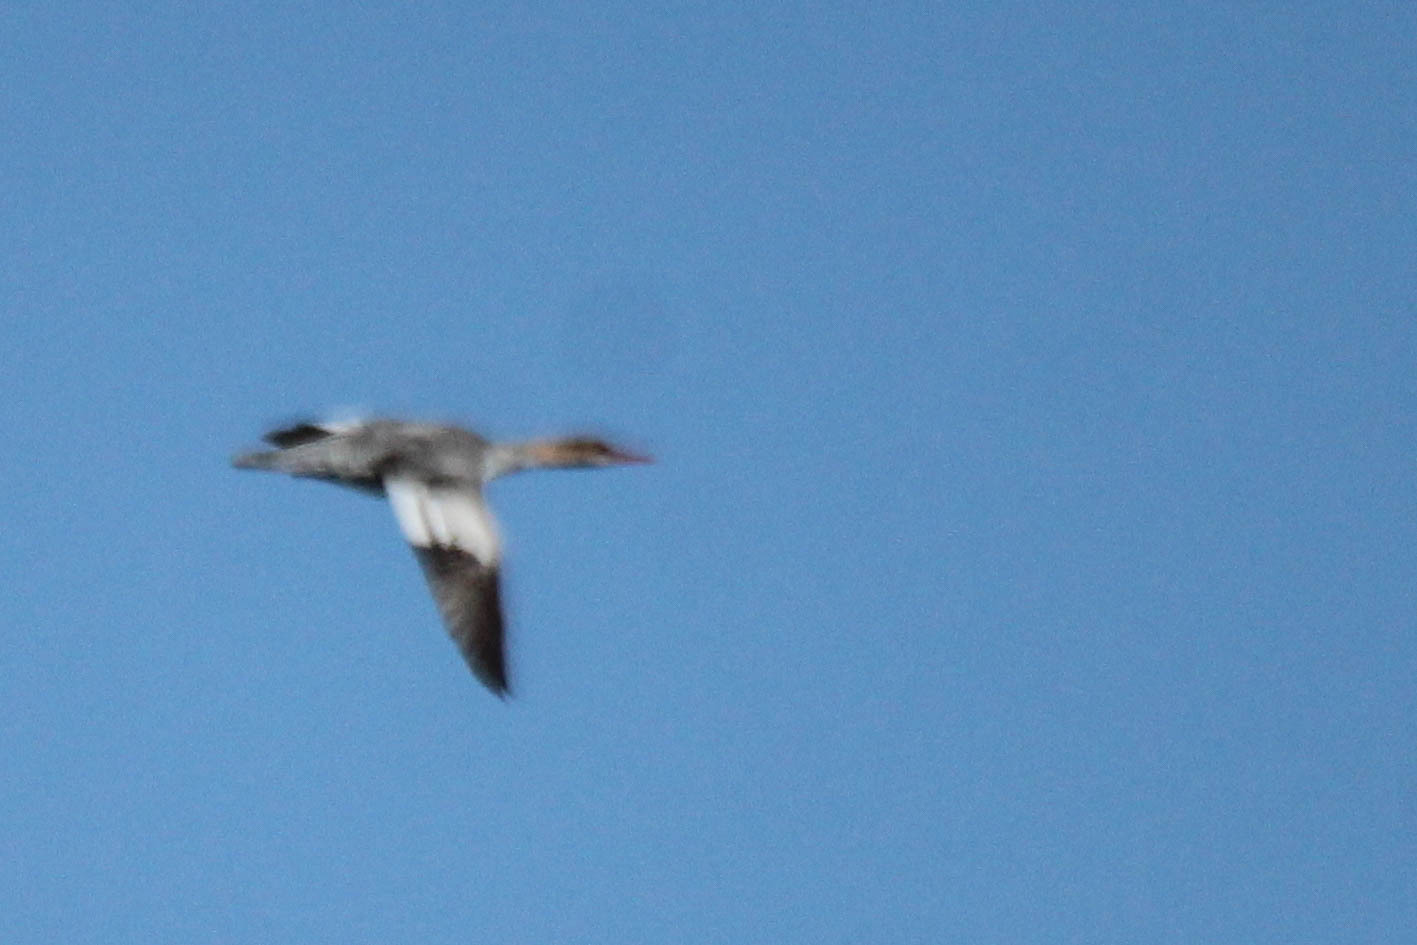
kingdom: Animalia
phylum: Chordata
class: Aves
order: Anseriformes
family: Anatidae
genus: Mergus
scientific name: Mergus squamatus
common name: Scaly-sided merganser
